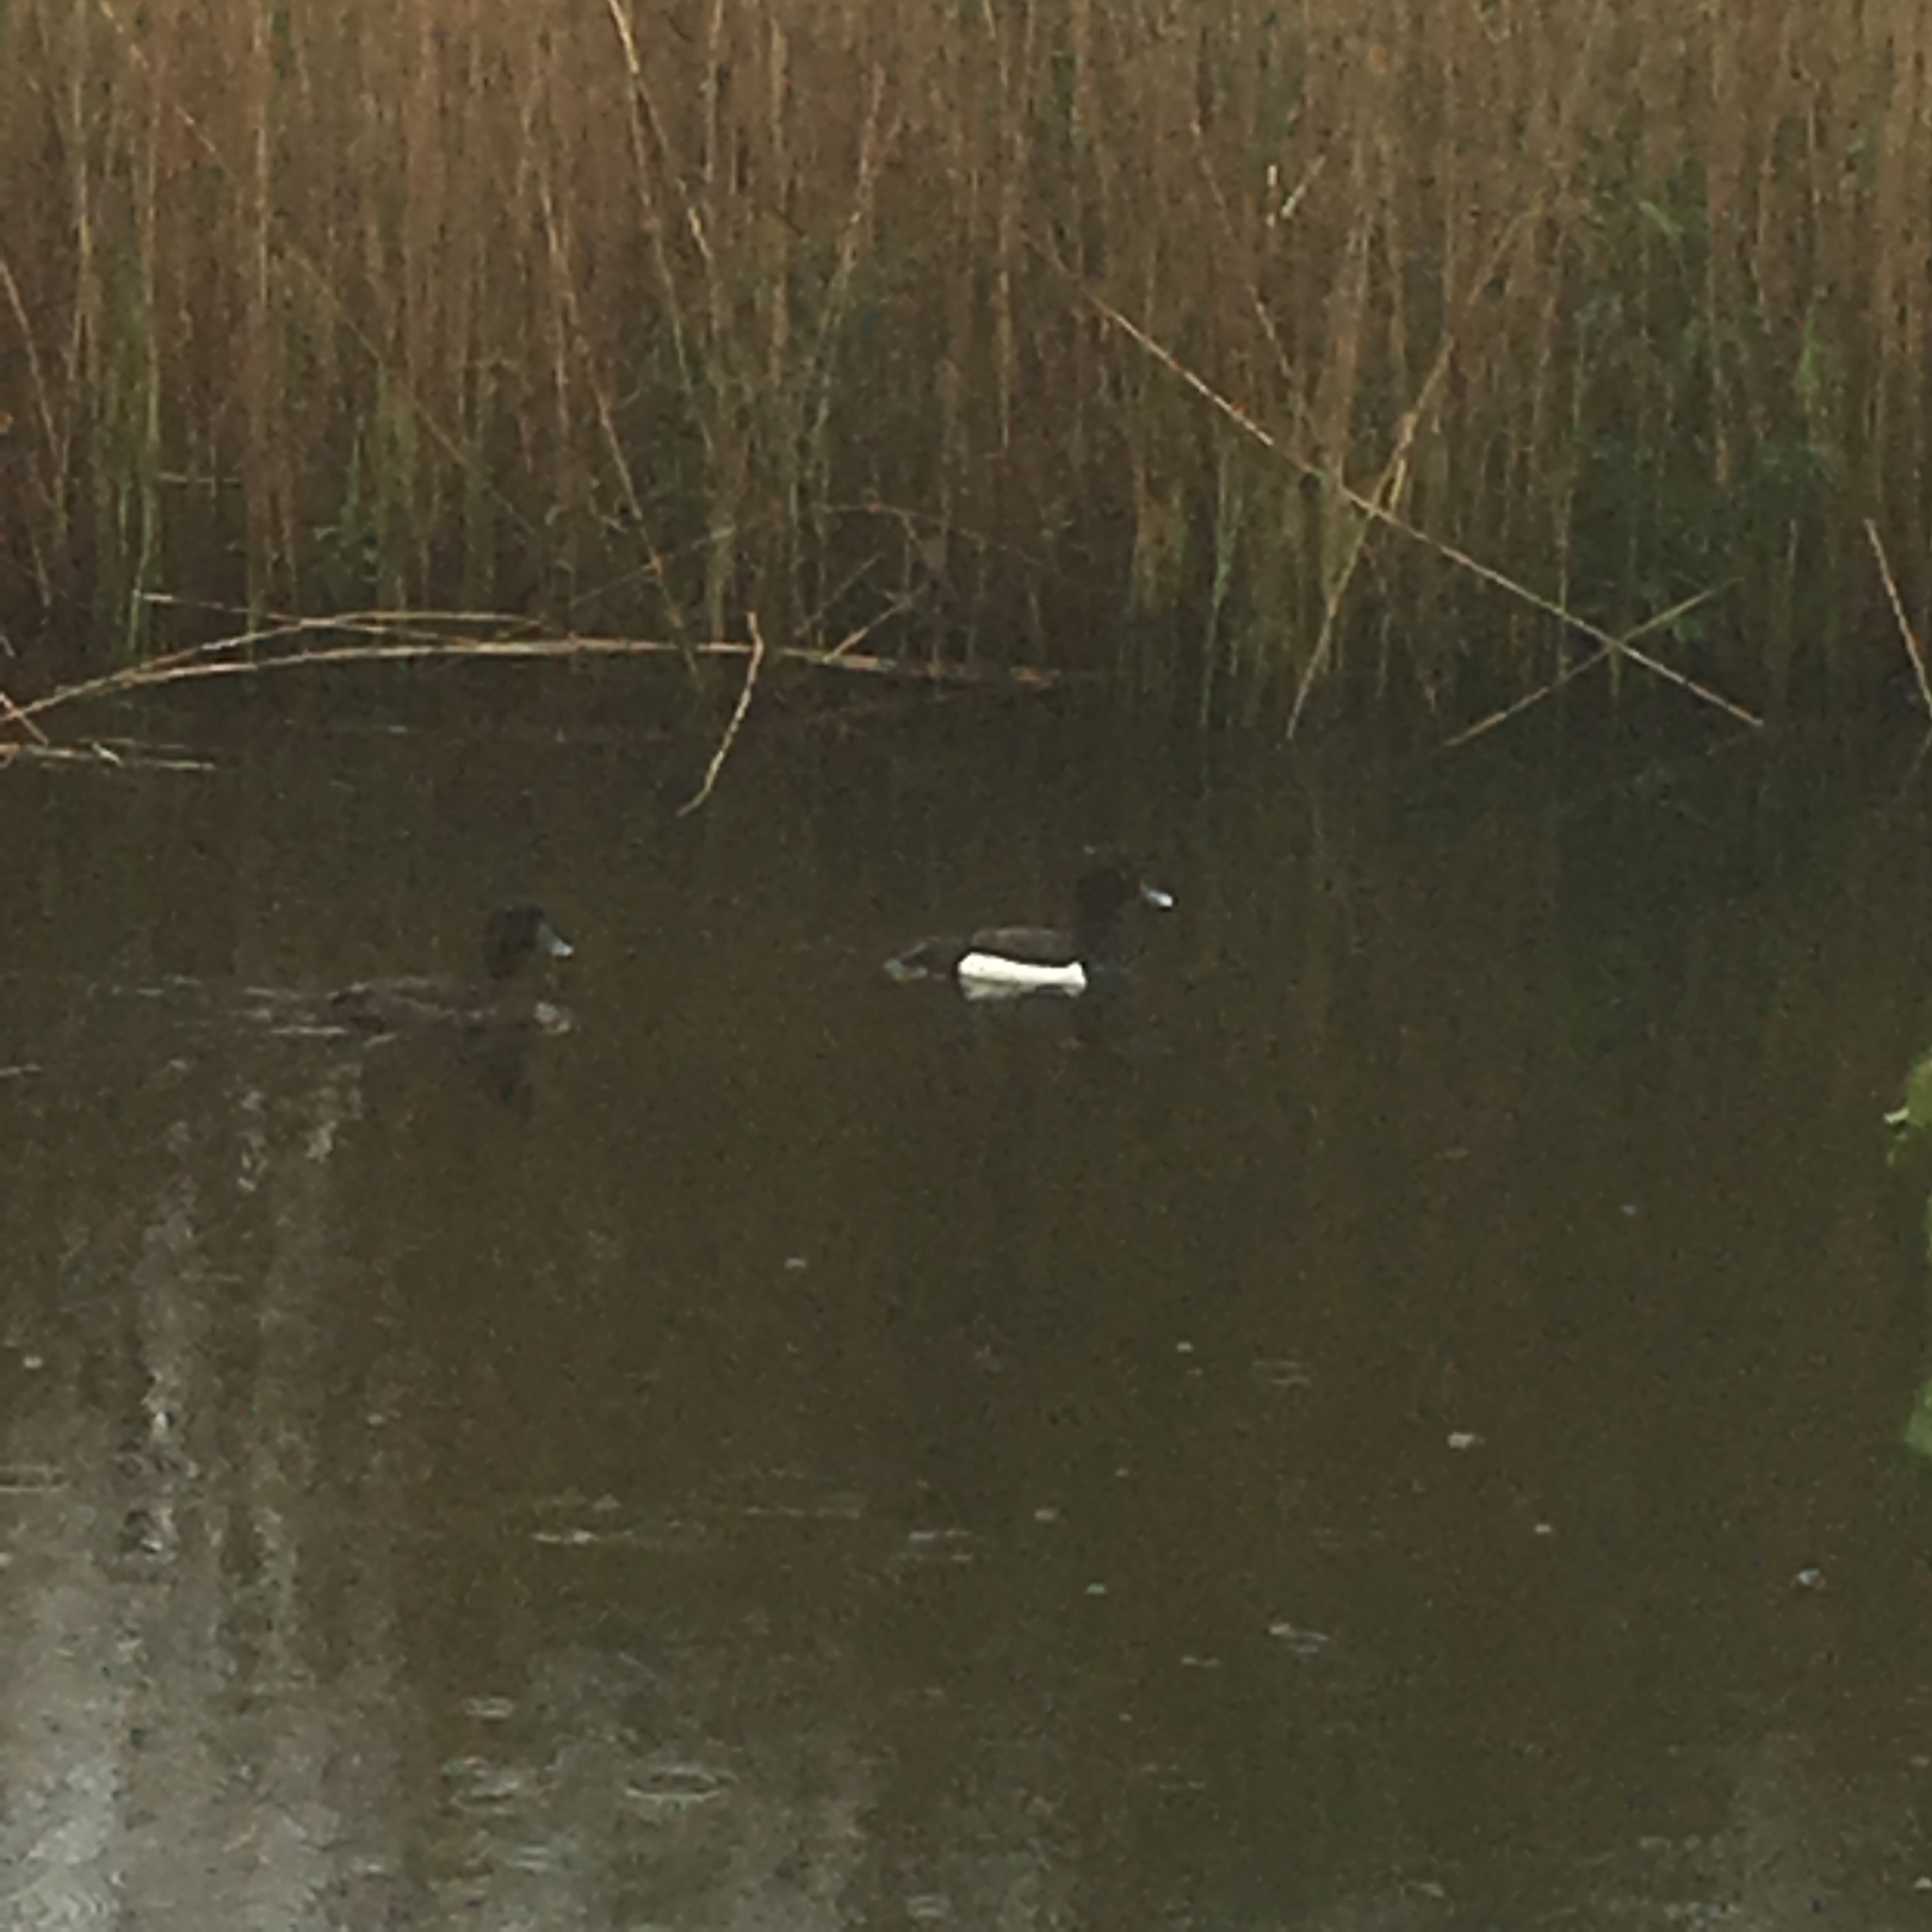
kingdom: Animalia
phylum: Chordata
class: Aves
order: Anseriformes
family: Anatidae
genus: Aythya
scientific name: Aythya fuligula
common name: Tufted duck
